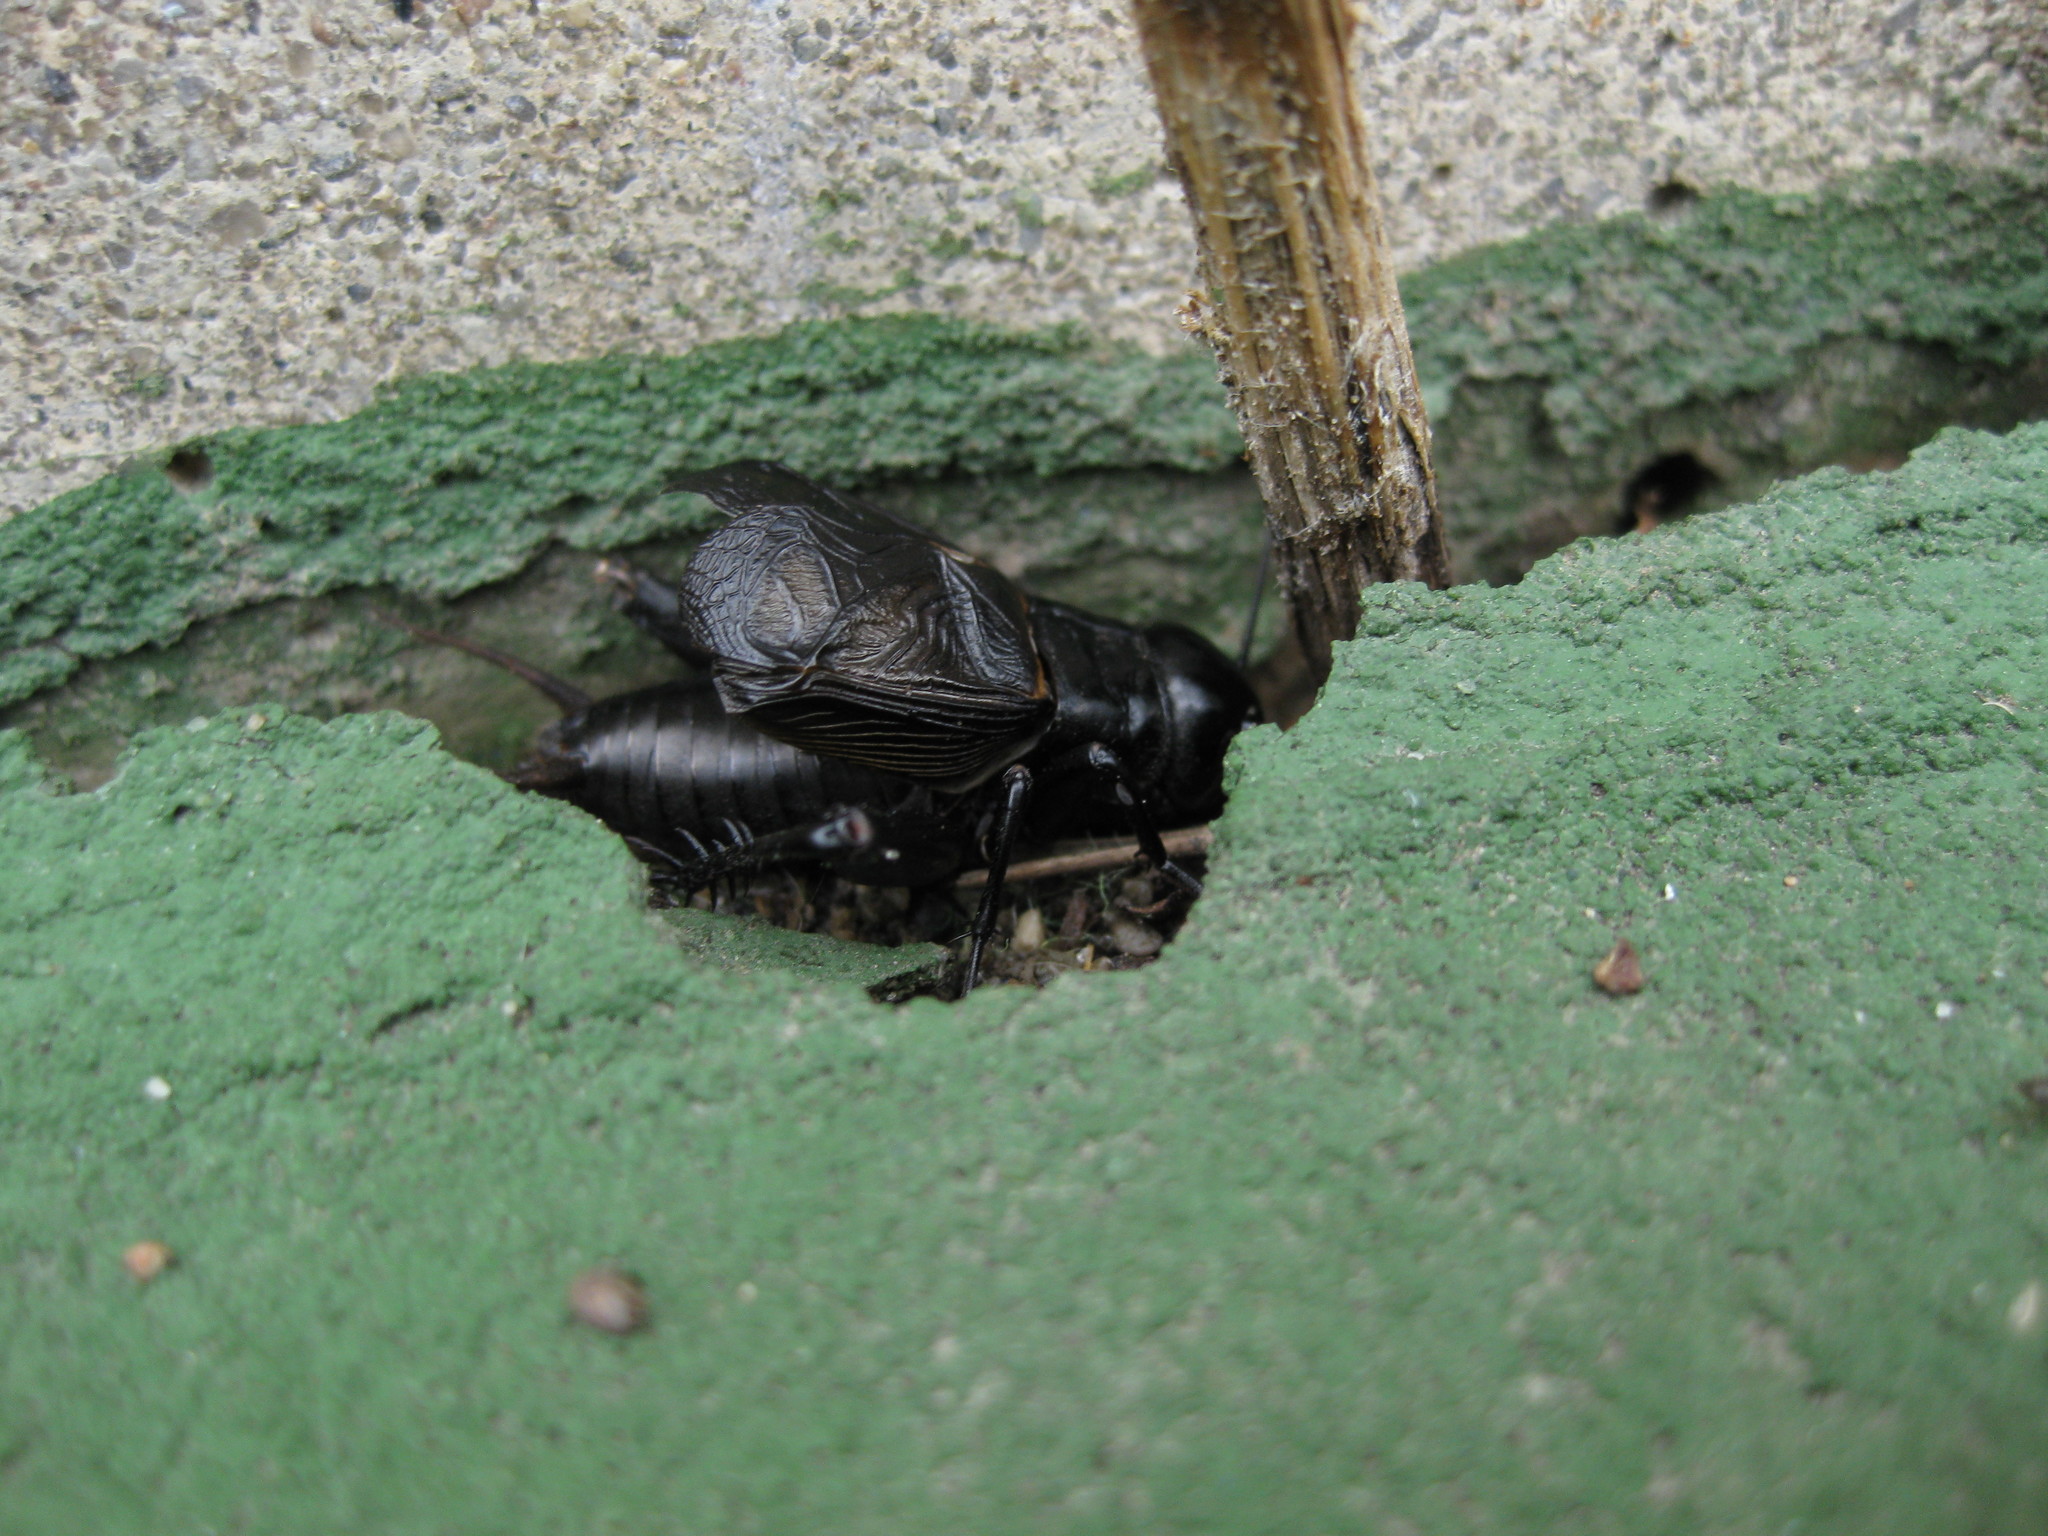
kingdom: Animalia
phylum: Arthropoda
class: Insecta
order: Orthoptera
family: Gryllidae
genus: Gryllus
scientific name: Gryllus pennsylvanicus
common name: Fall field cricket
